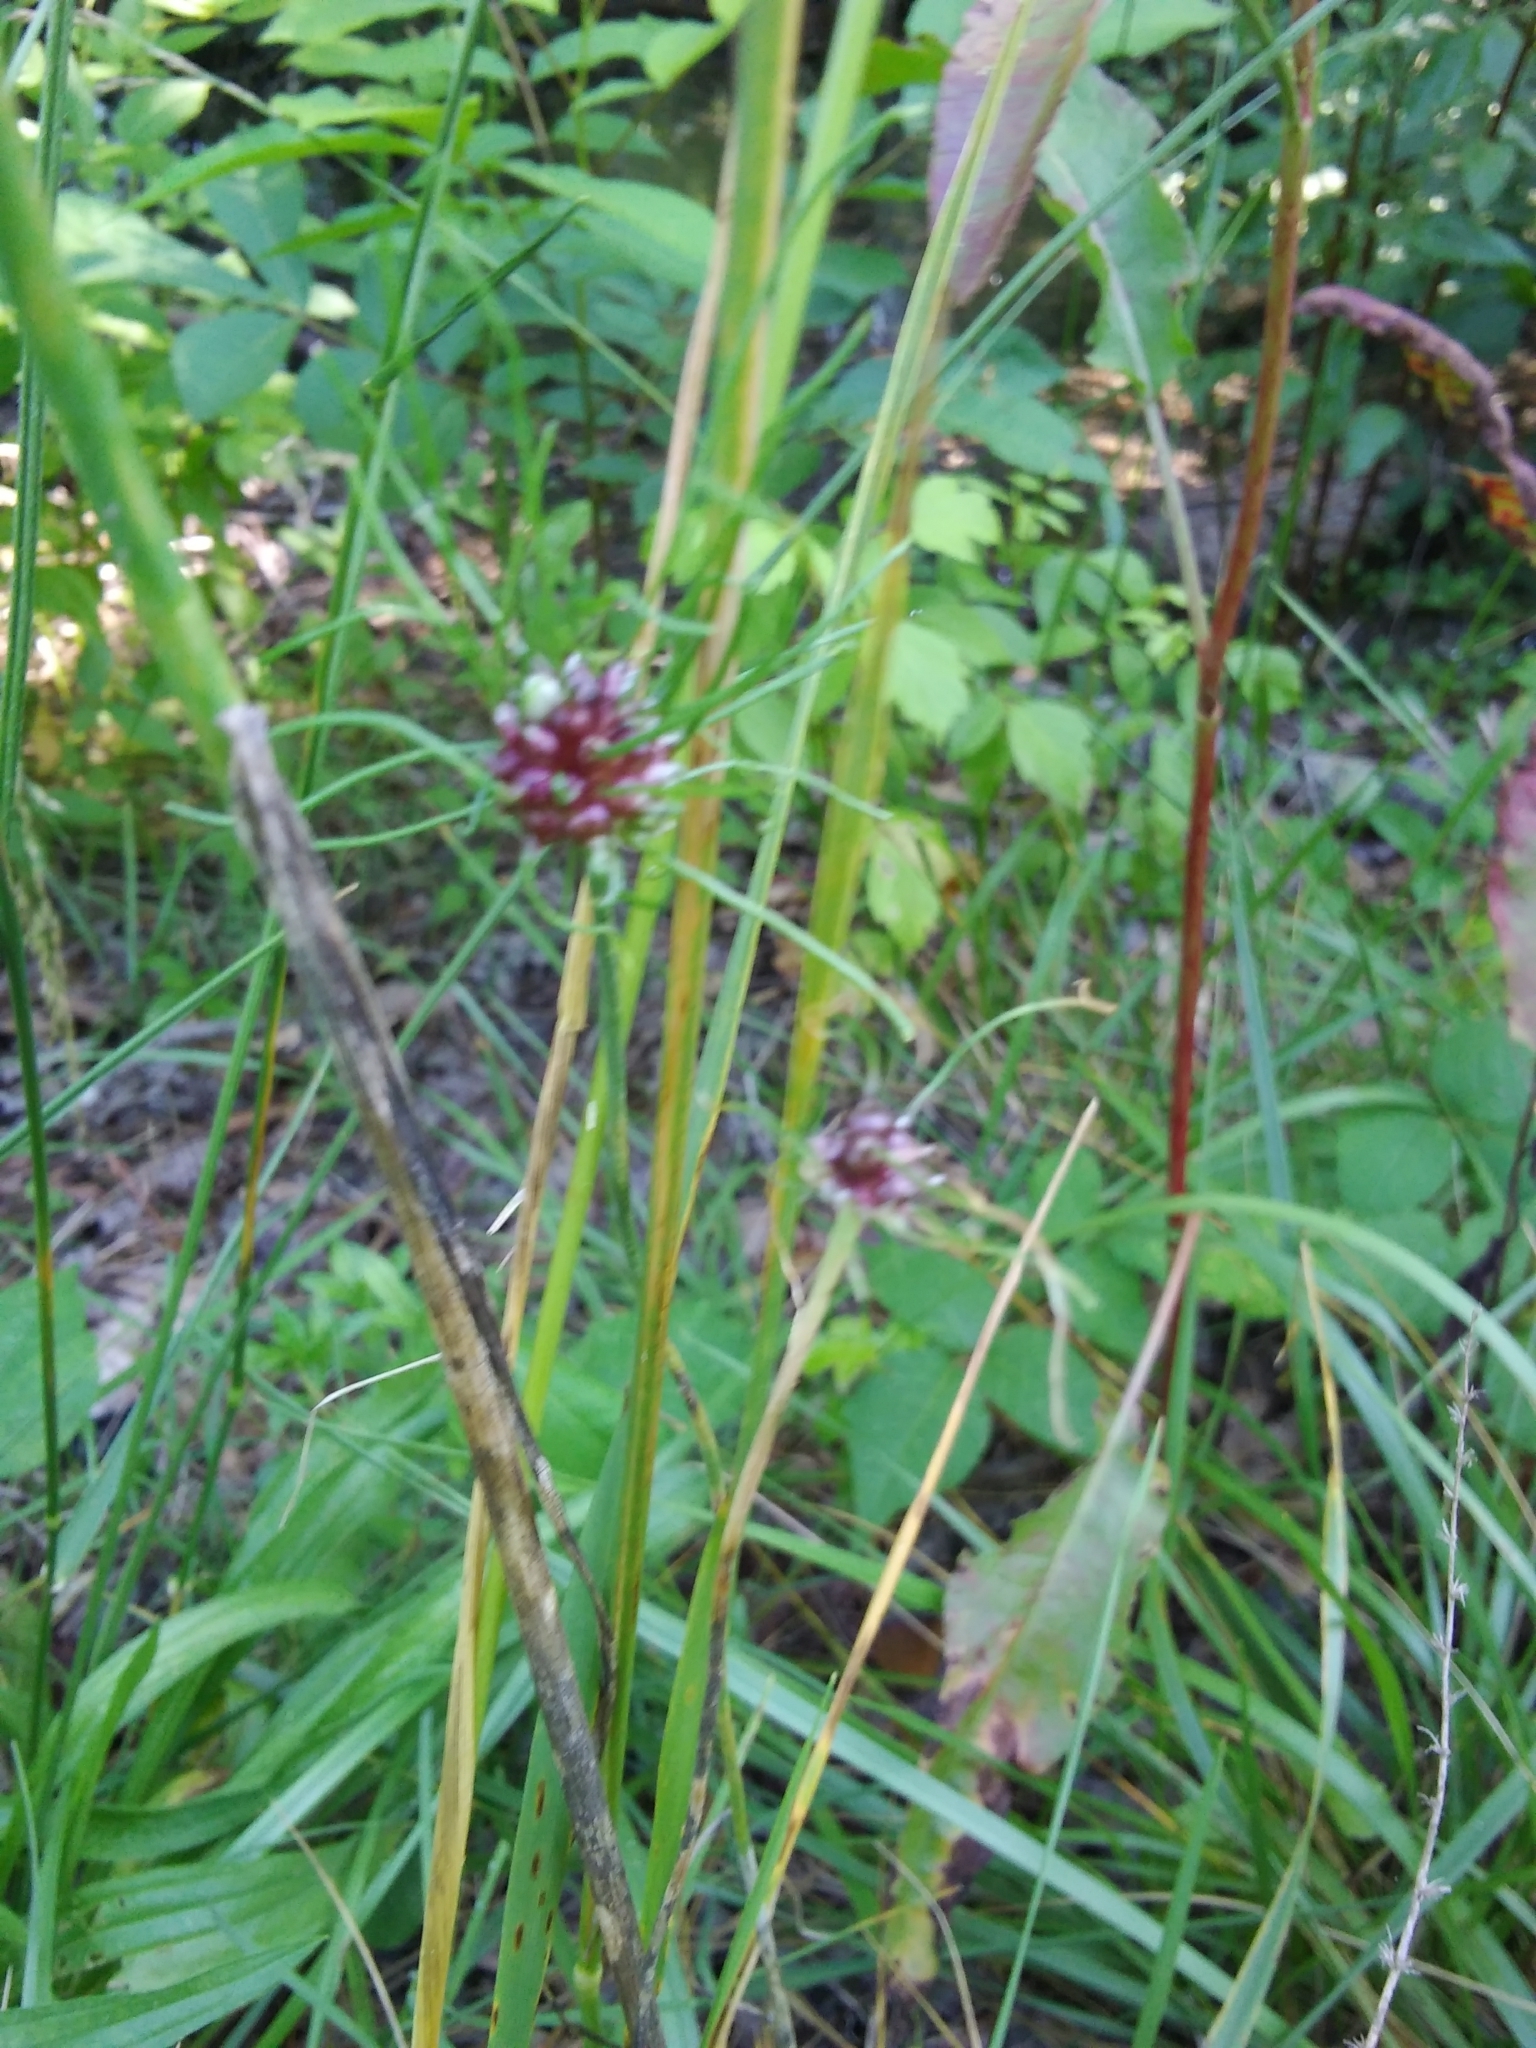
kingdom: Plantae
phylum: Tracheophyta
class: Liliopsida
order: Asparagales
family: Amaryllidaceae
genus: Allium
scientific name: Allium vineale
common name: Crow garlic
